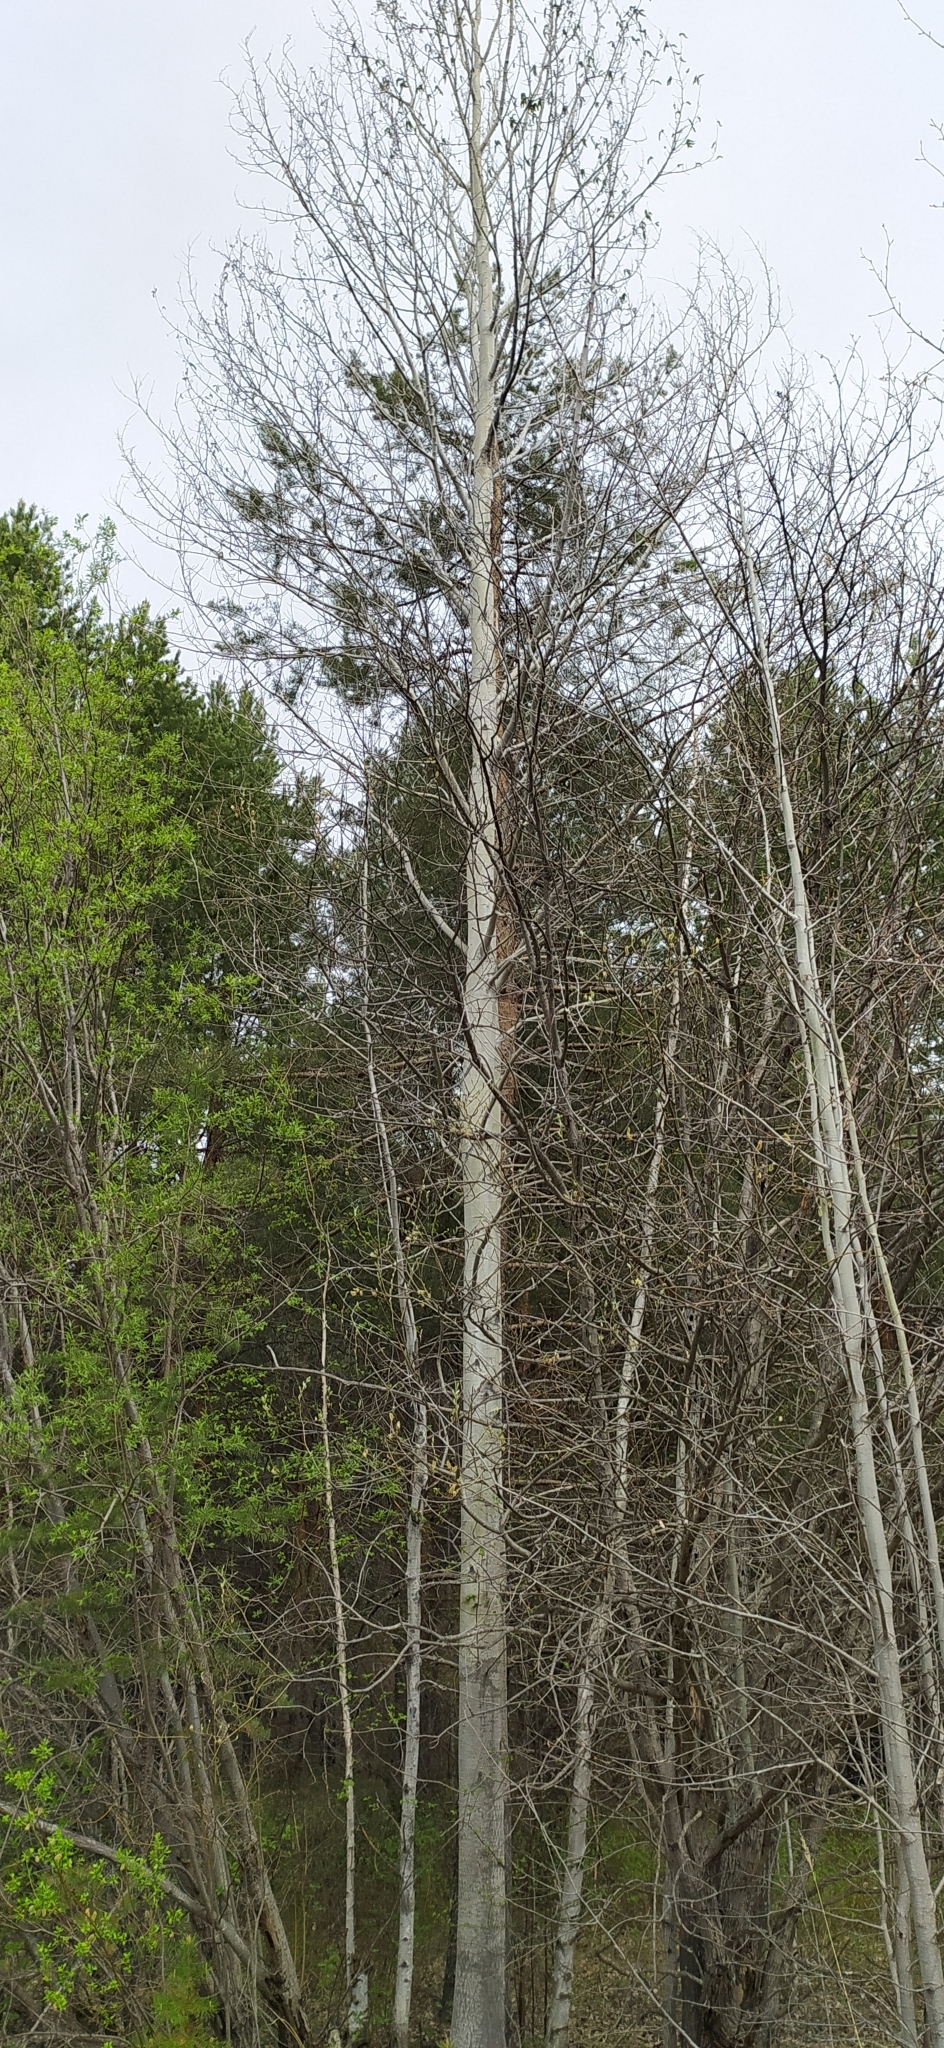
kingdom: Plantae
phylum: Tracheophyta
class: Magnoliopsida
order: Malpighiales
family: Salicaceae
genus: Populus
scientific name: Populus tremula
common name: European aspen
